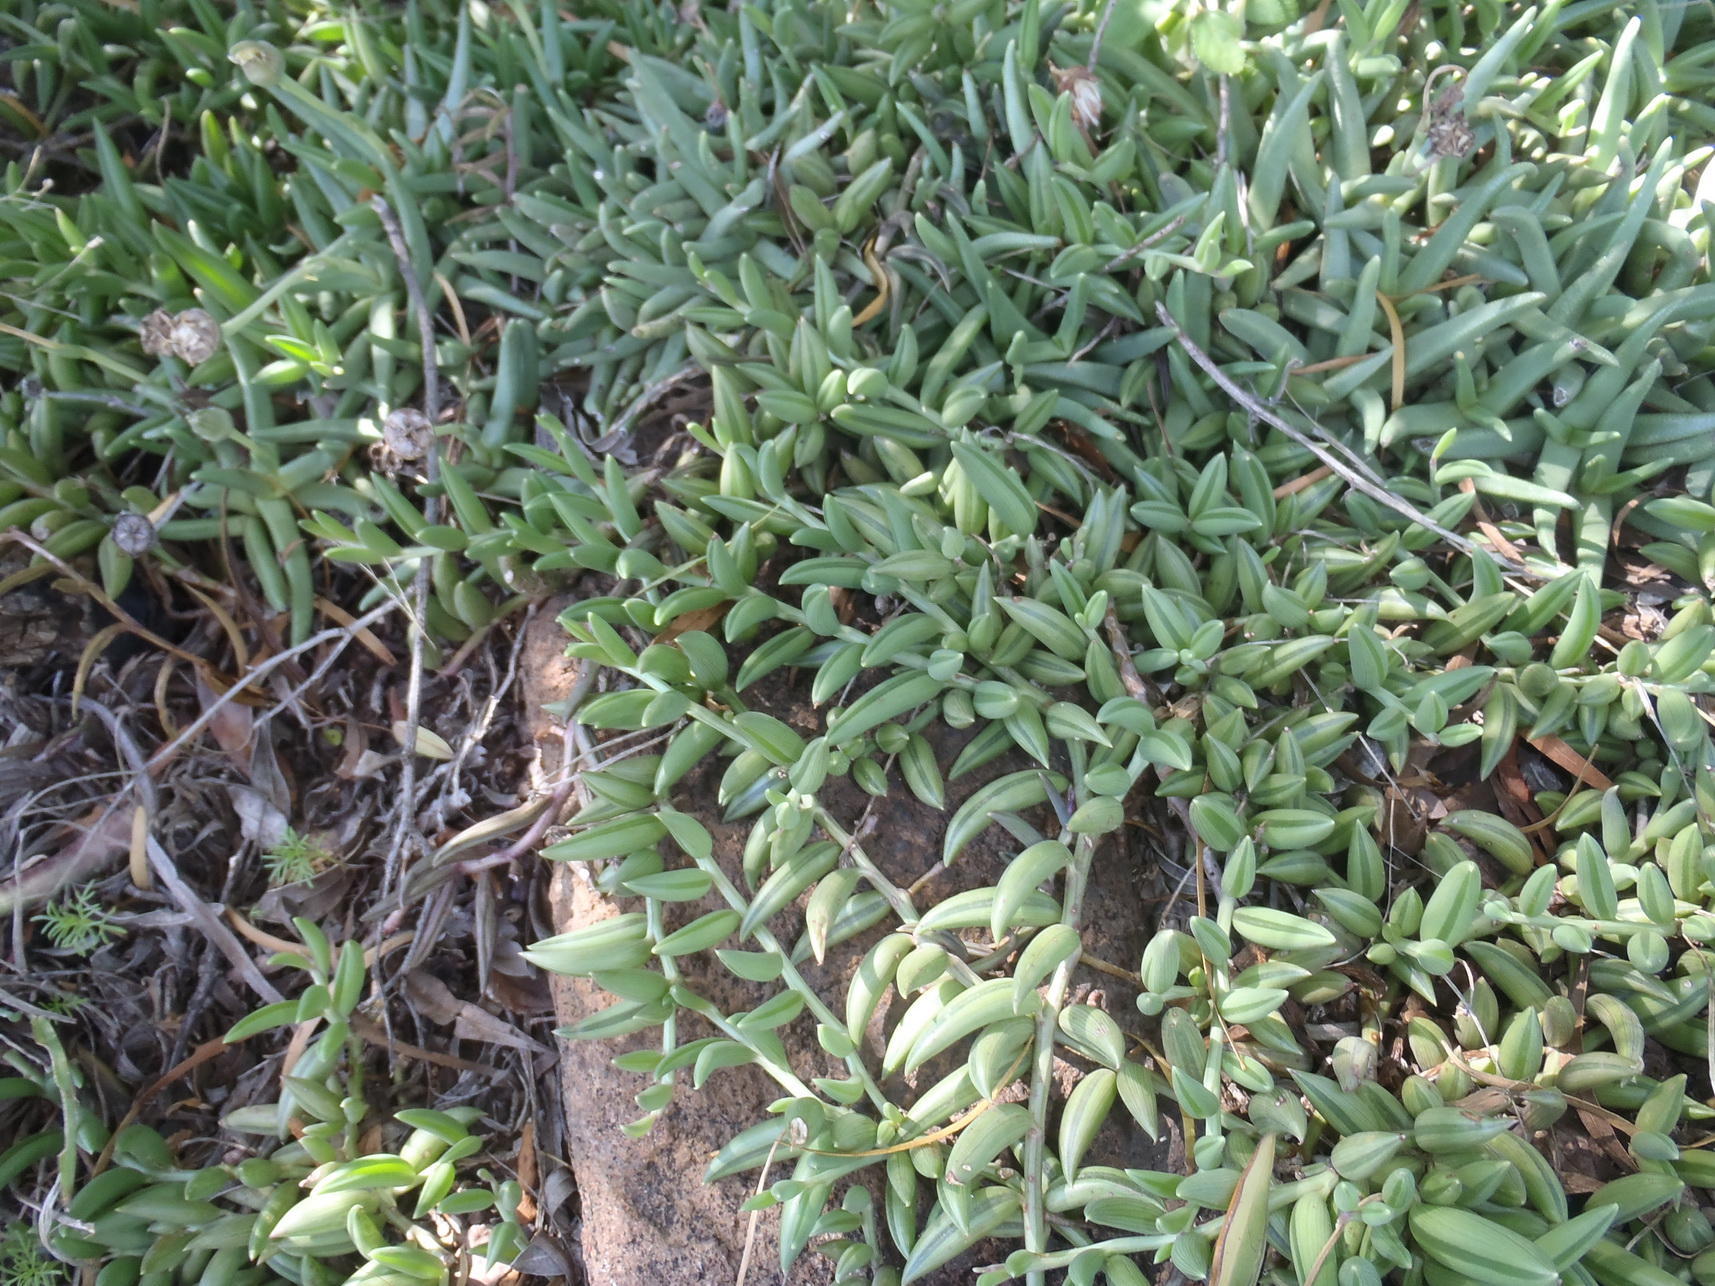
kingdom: Plantae
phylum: Tracheophyta
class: Magnoliopsida
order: Asterales
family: Asteraceae
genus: Curio
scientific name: Curio radicans
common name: Creeping-berry
